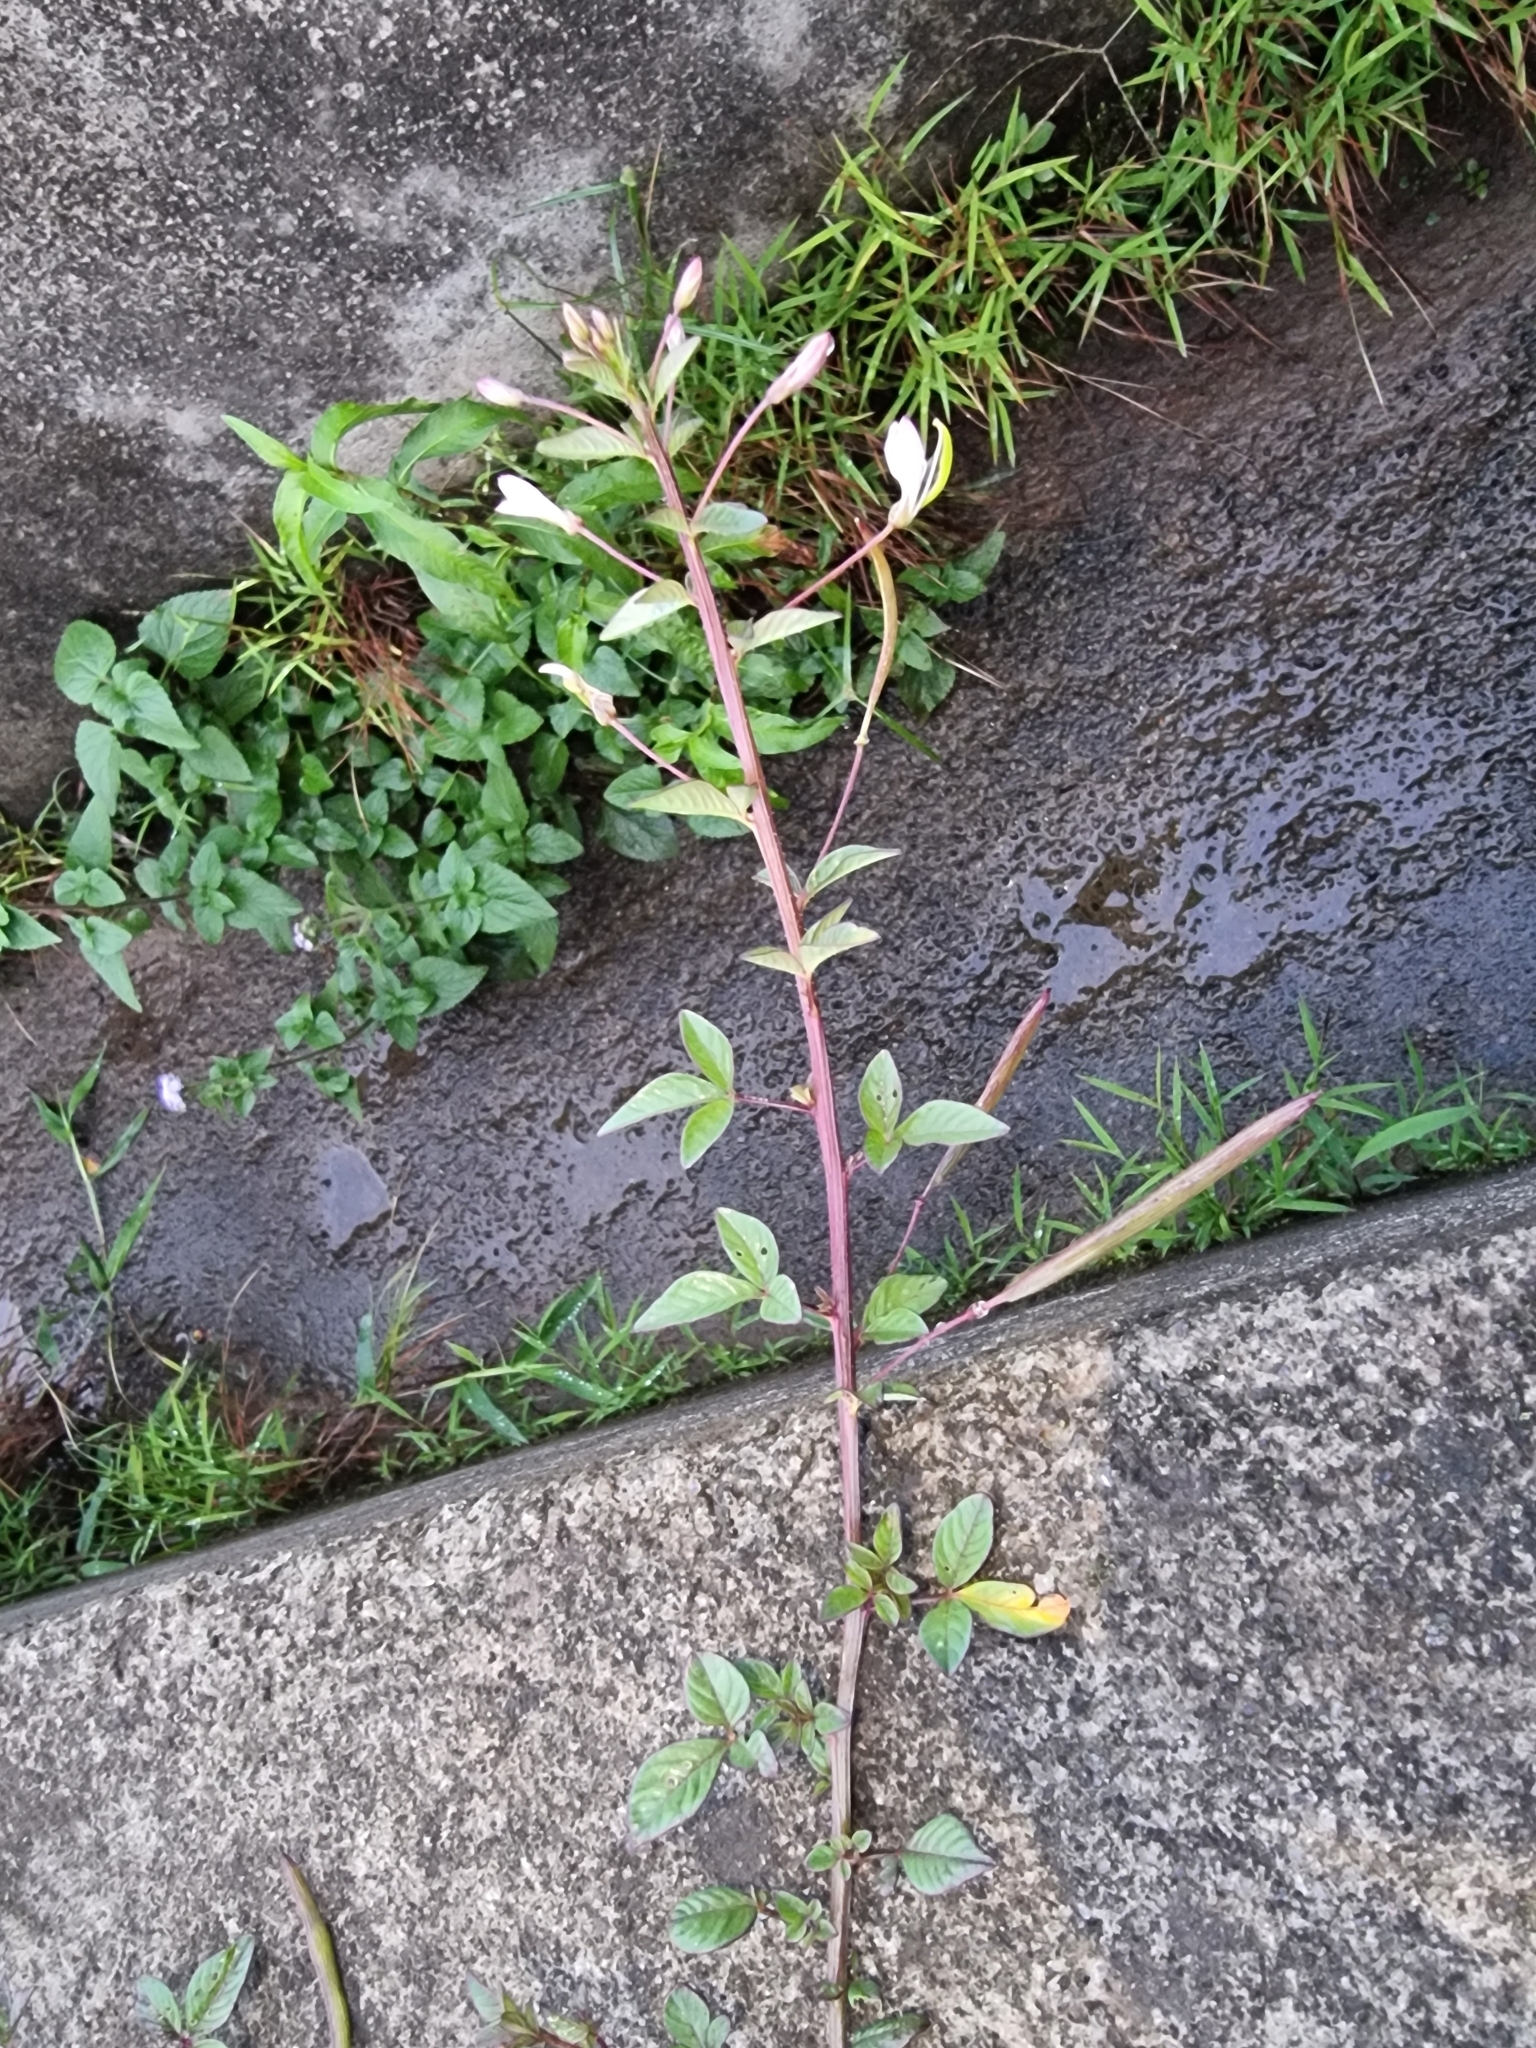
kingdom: Plantae
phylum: Tracheophyta
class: Magnoliopsida
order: Brassicales
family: Cleomaceae
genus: Sieruela
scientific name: Sieruela rutidosperma
